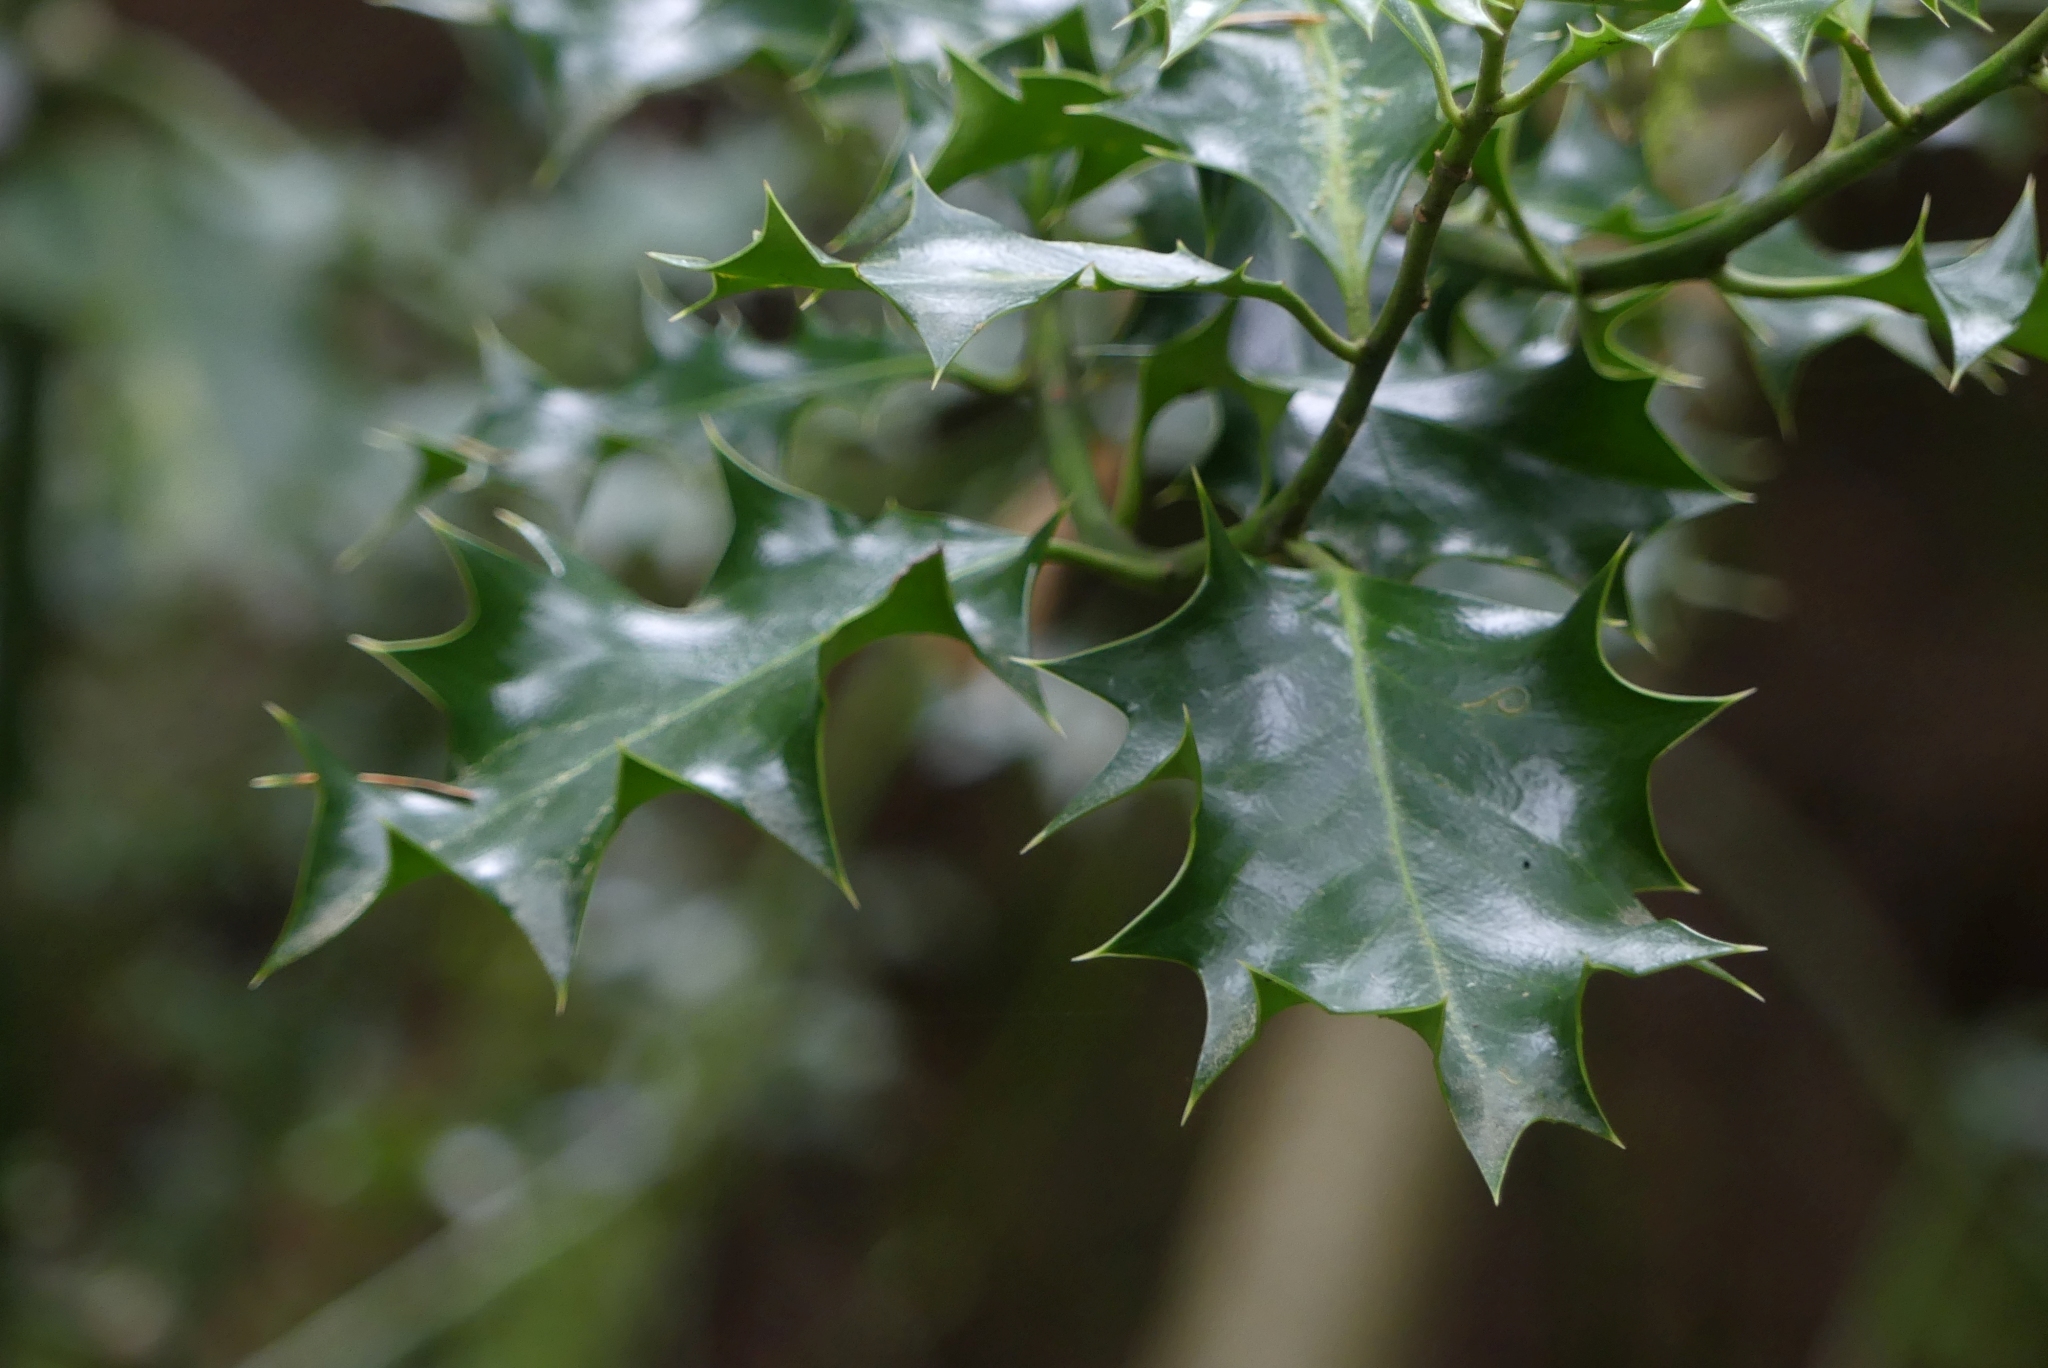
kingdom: Plantae
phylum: Tracheophyta
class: Magnoliopsida
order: Aquifoliales
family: Aquifoliaceae
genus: Ilex
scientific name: Ilex aquifolium
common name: English holly
